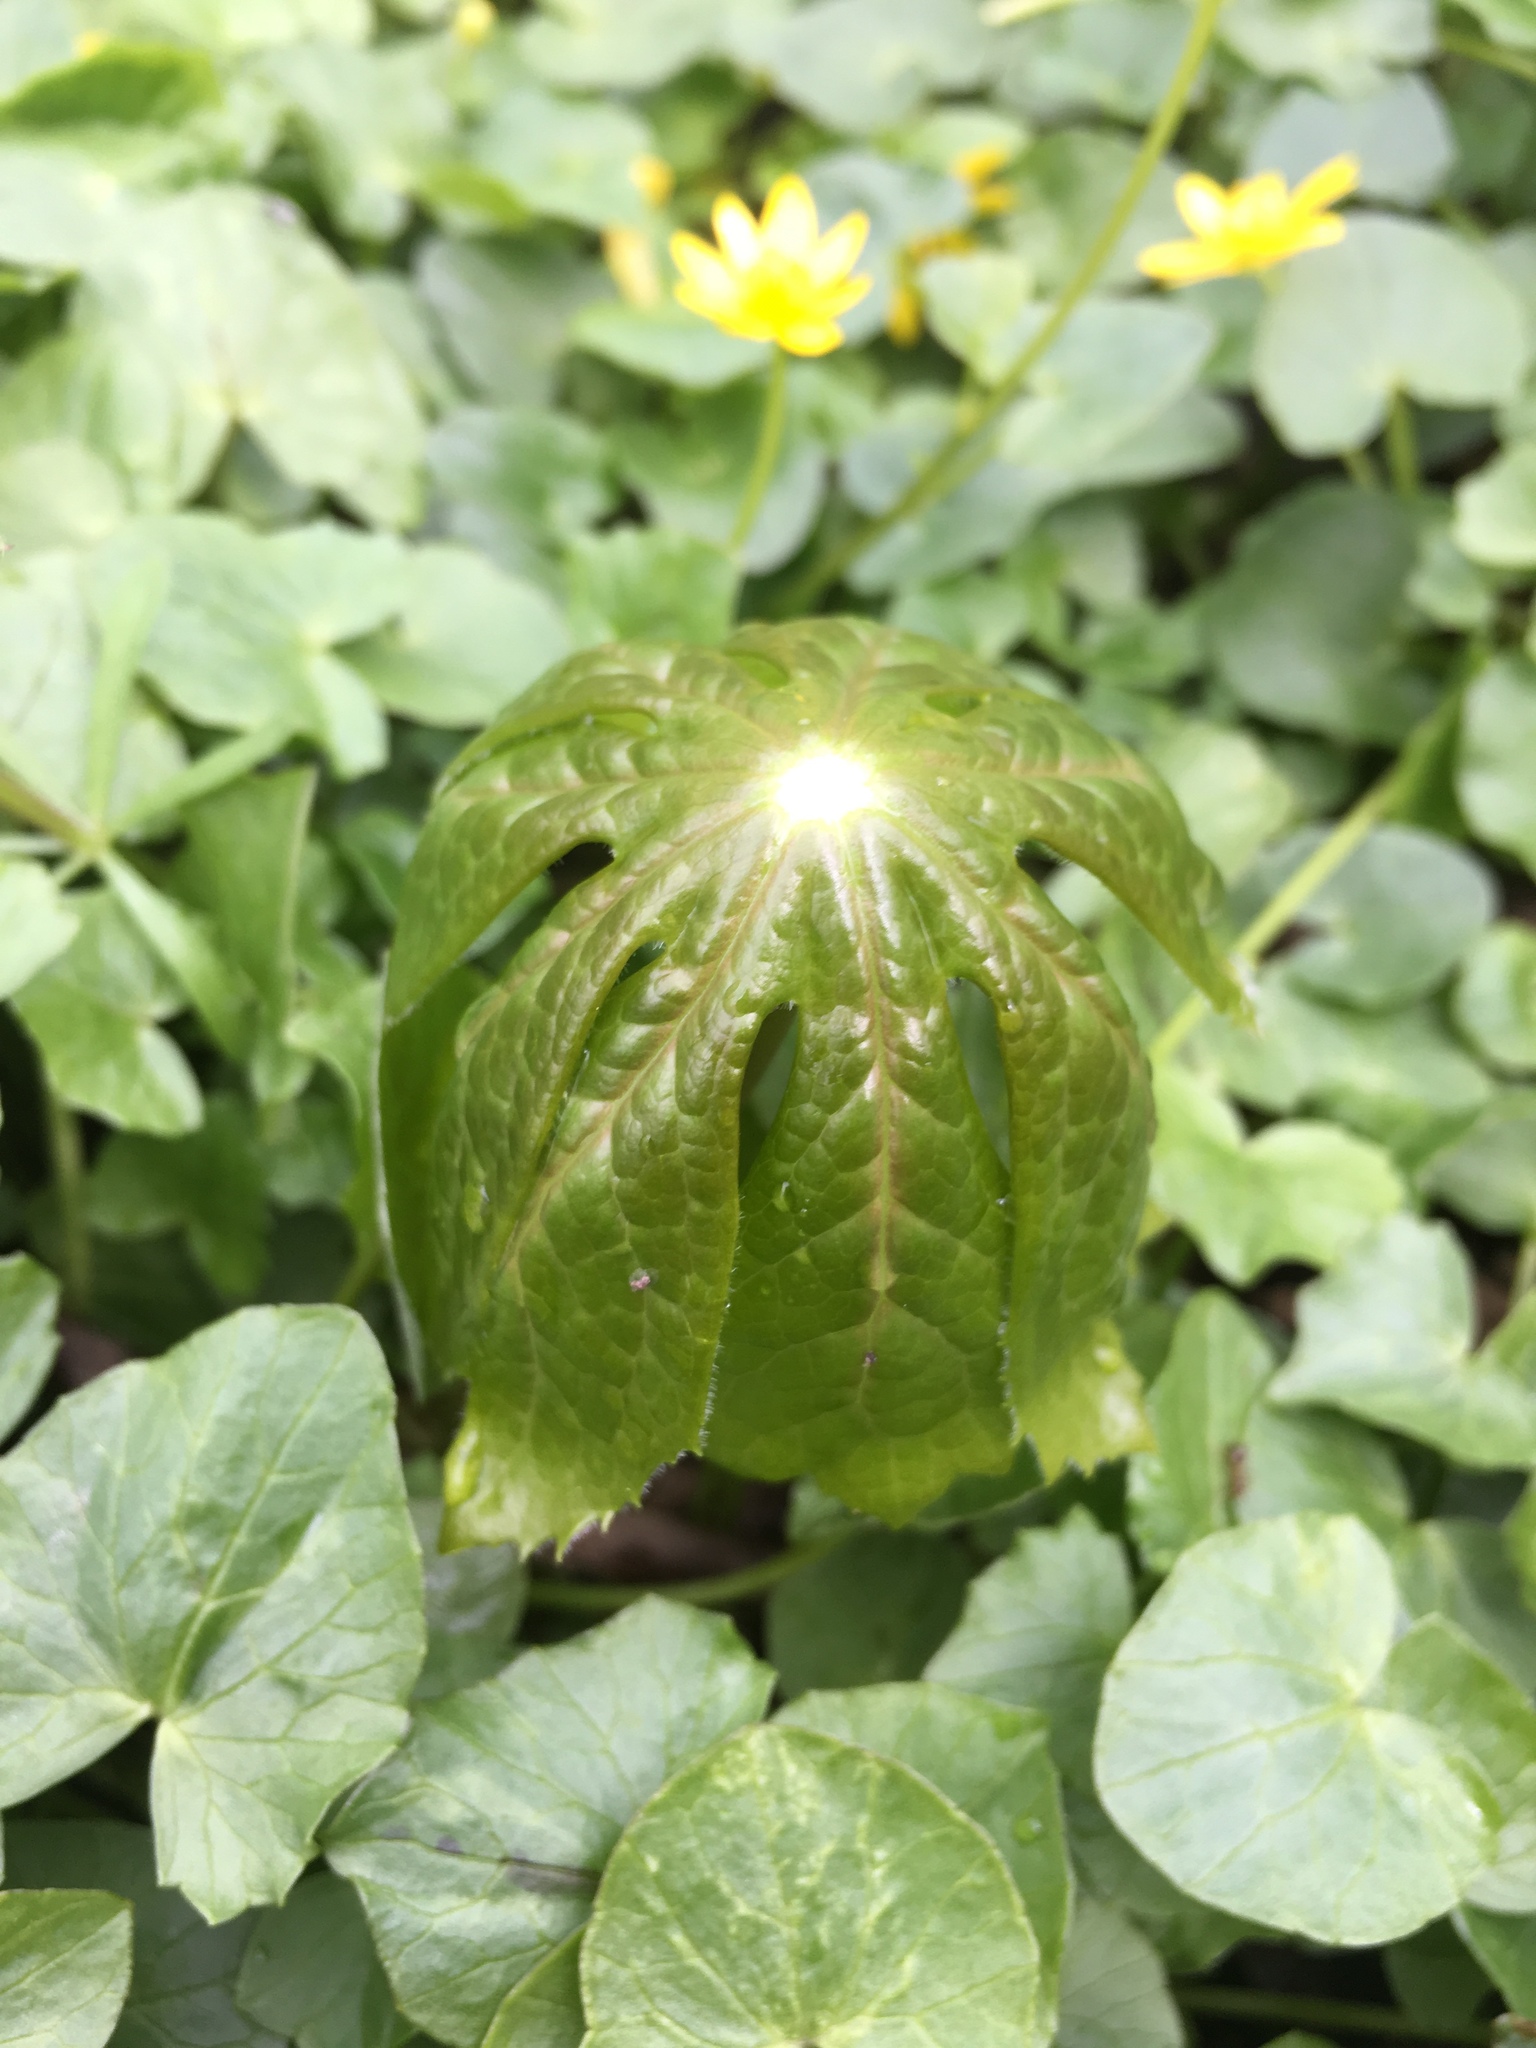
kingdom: Plantae
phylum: Tracheophyta
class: Magnoliopsida
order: Ranunculales
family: Berberidaceae
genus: Podophyllum
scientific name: Podophyllum peltatum
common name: Wild mandrake
